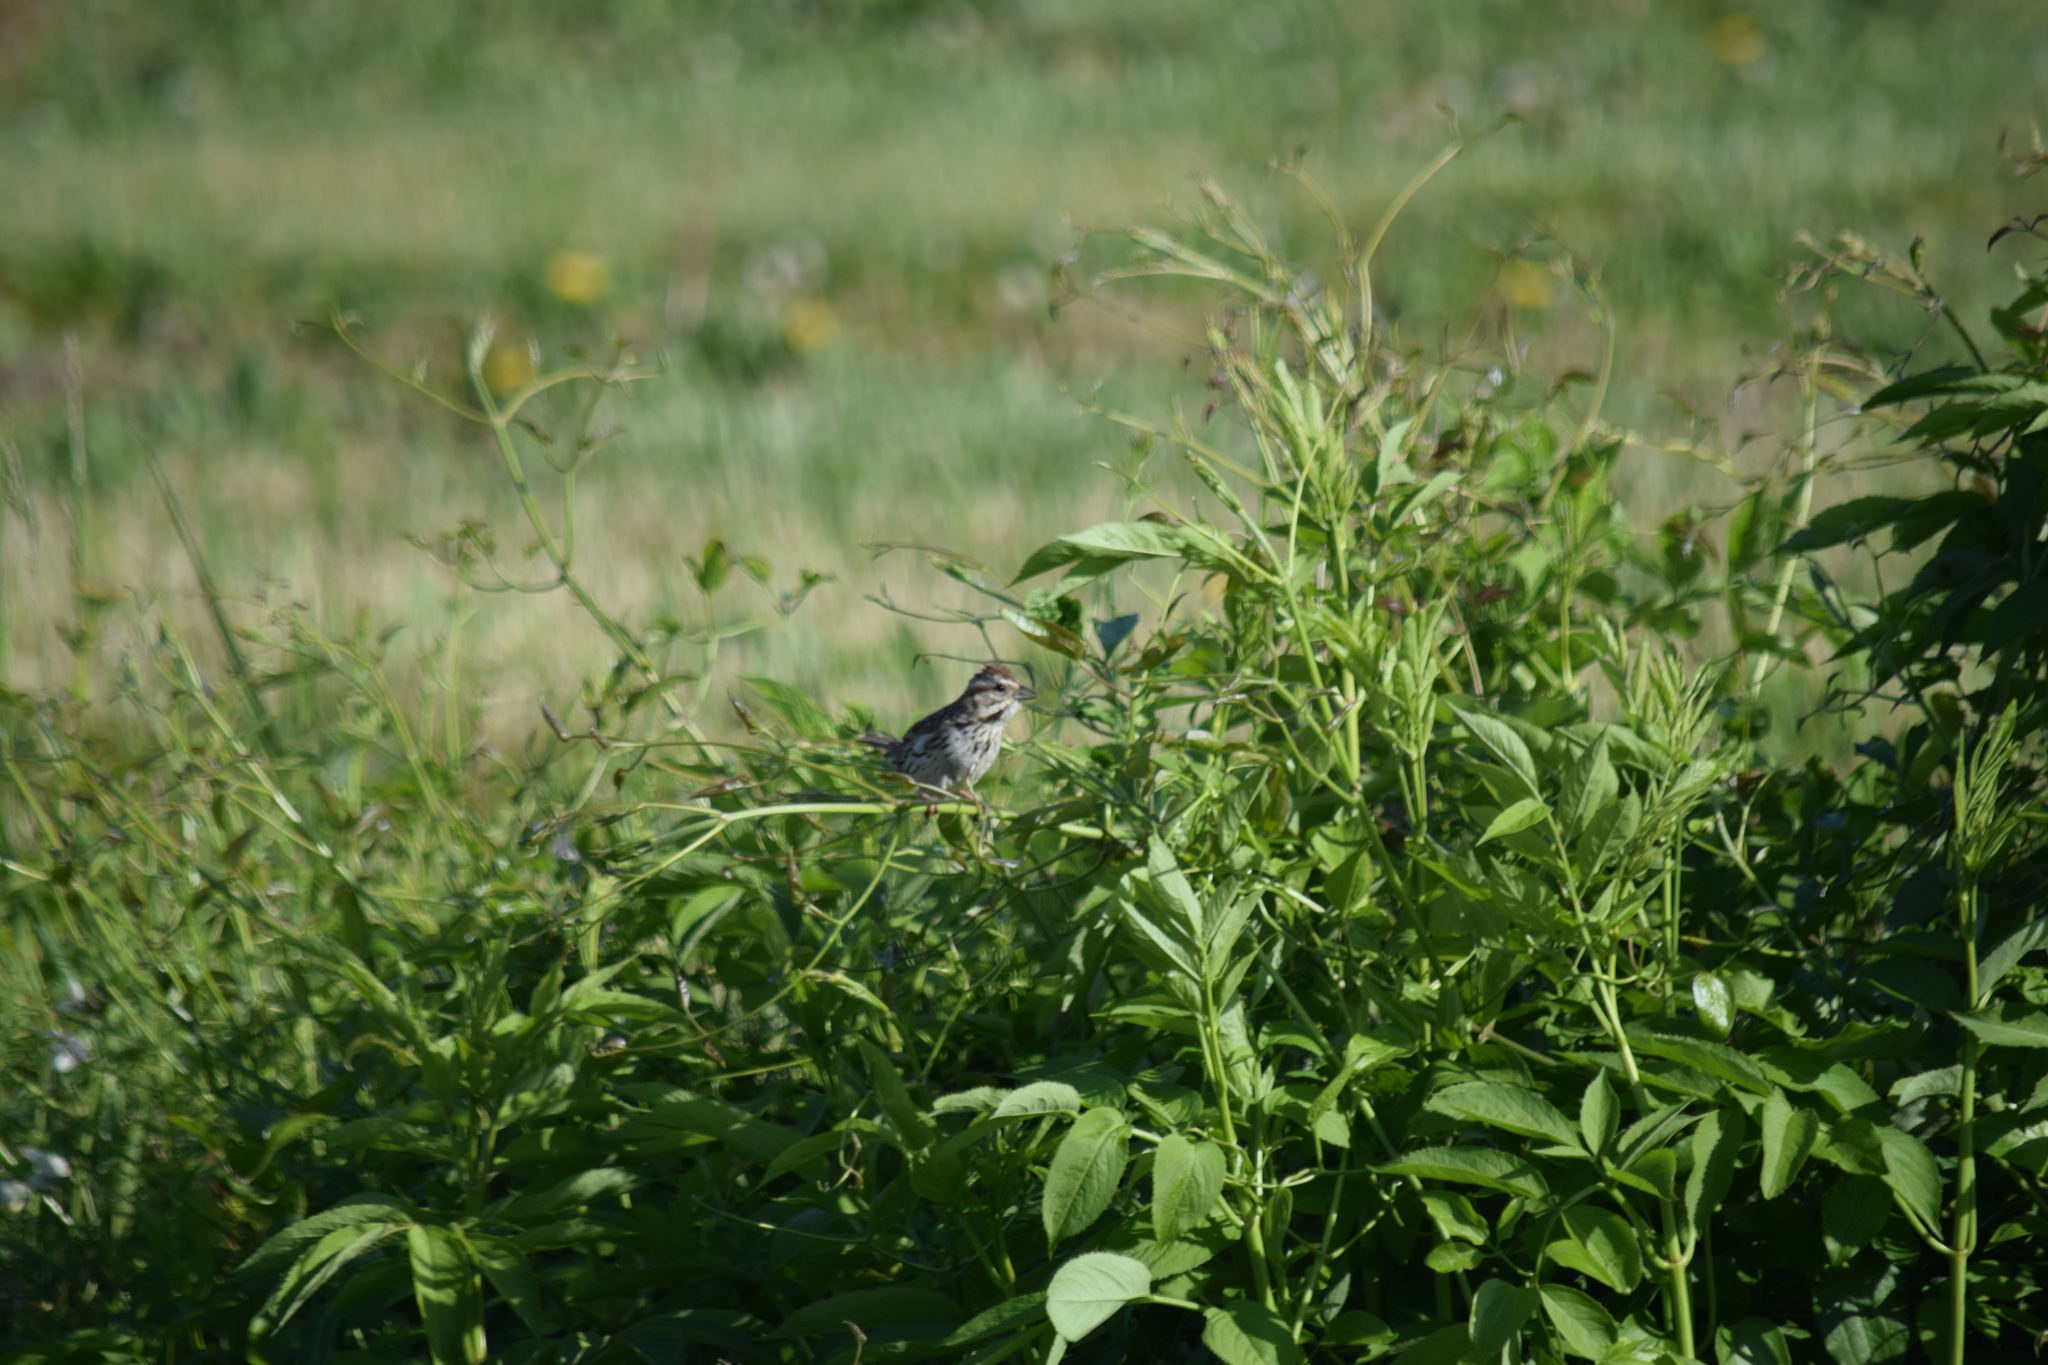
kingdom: Animalia
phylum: Chordata
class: Aves
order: Passeriformes
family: Passerellidae
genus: Melospiza
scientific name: Melospiza melodia
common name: Song sparrow
